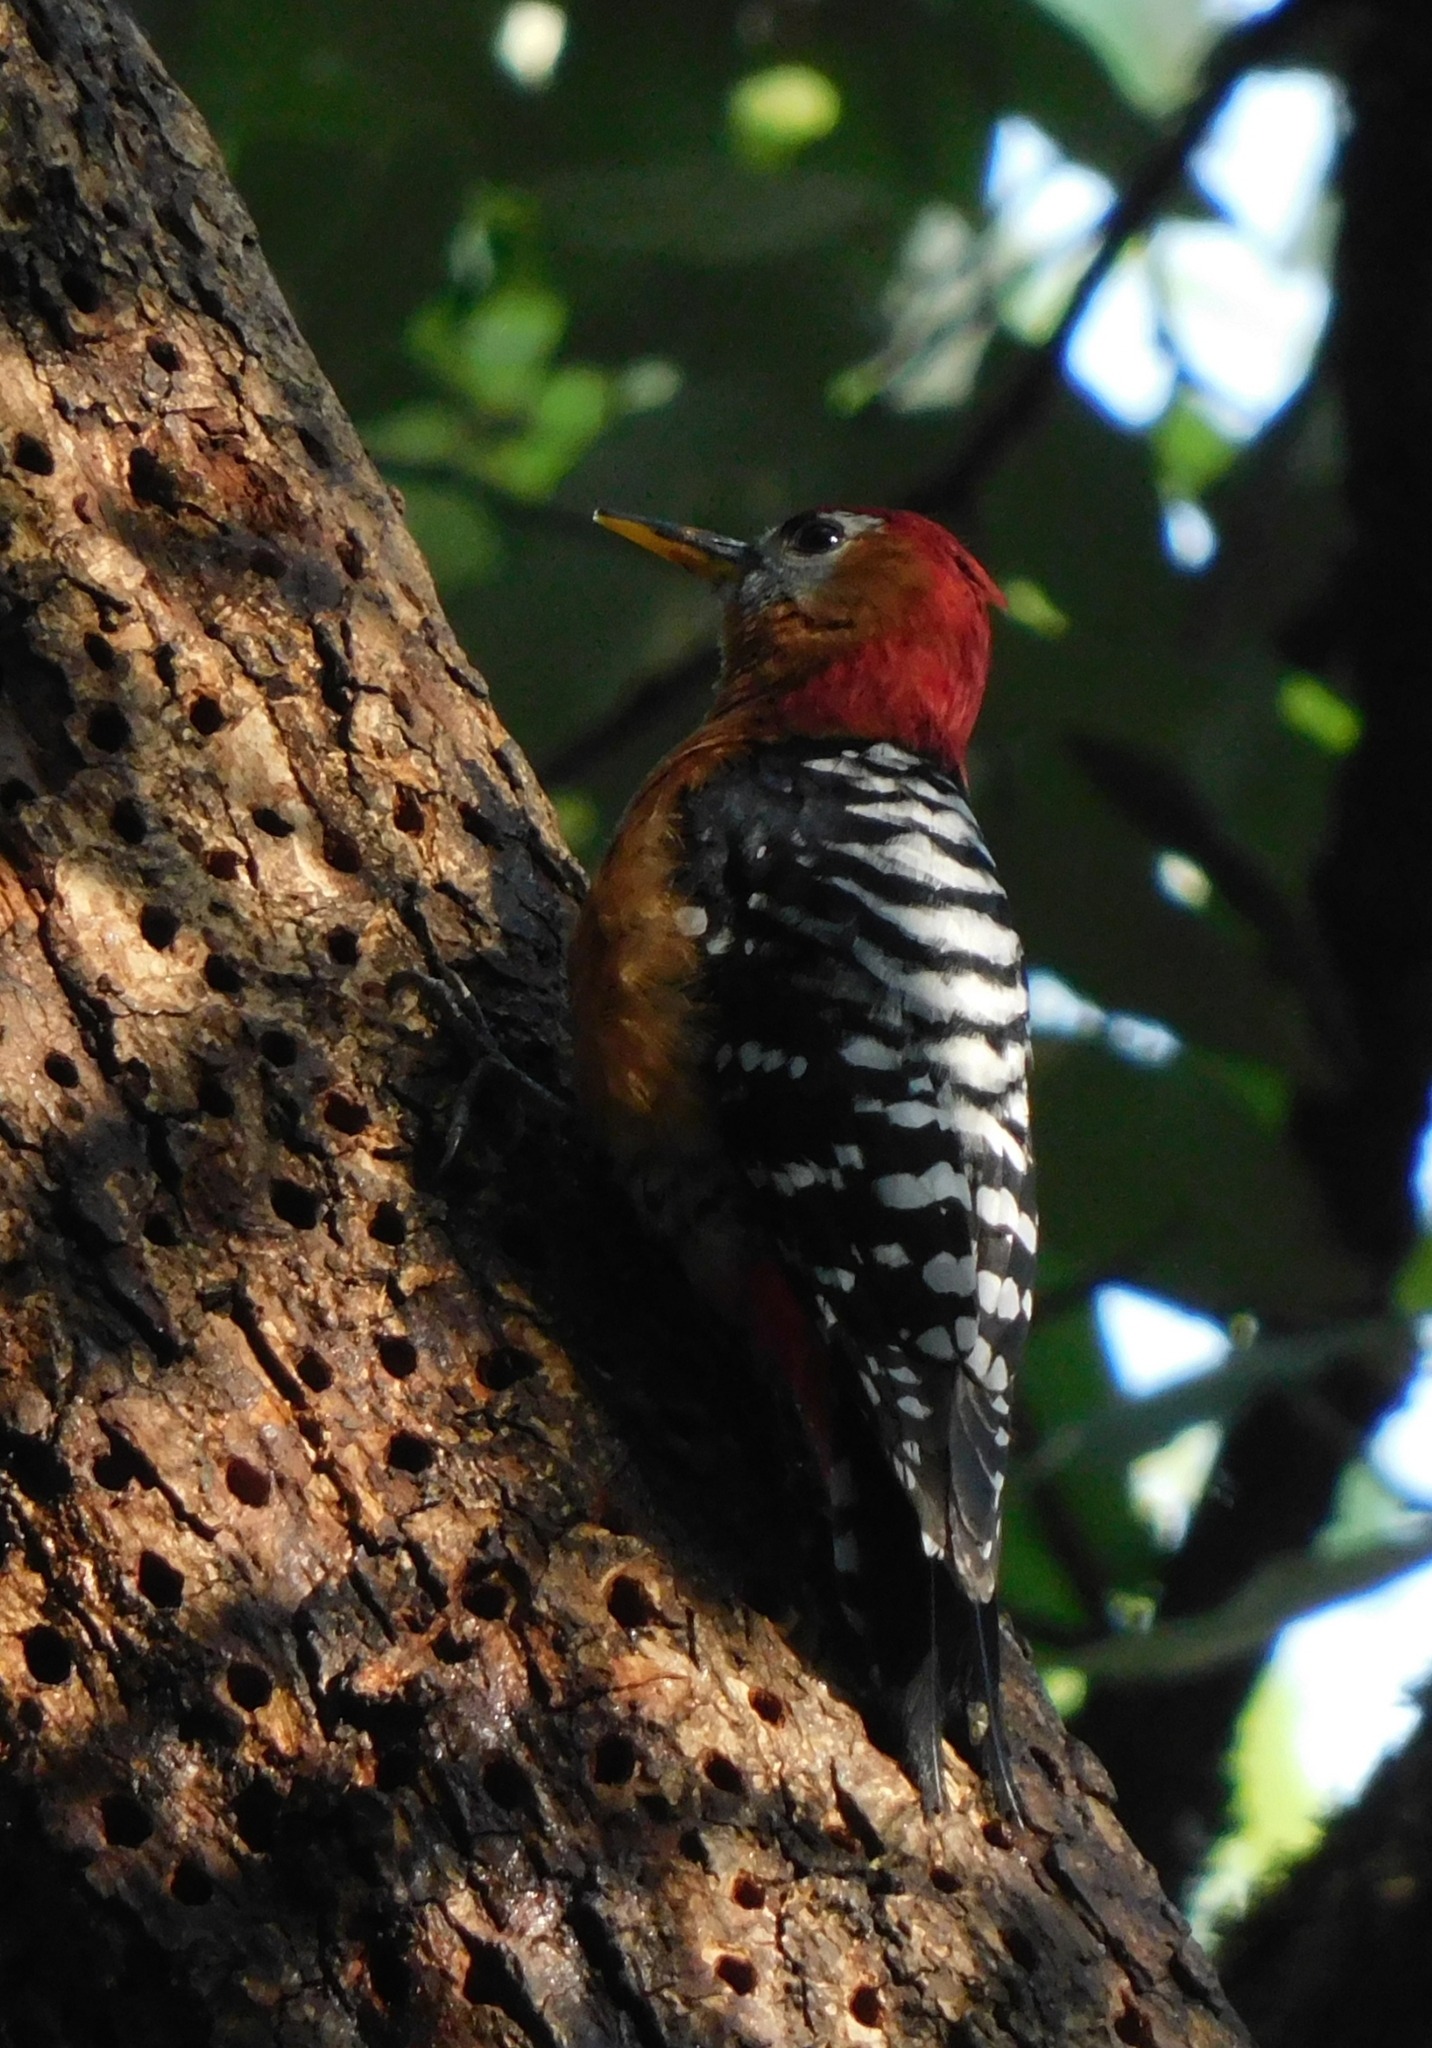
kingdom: Animalia
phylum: Chordata
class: Aves
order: Piciformes
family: Picidae
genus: Dendrocopos
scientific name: Dendrocopos hyperythrus
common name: Rufous-bellied woodpecker
